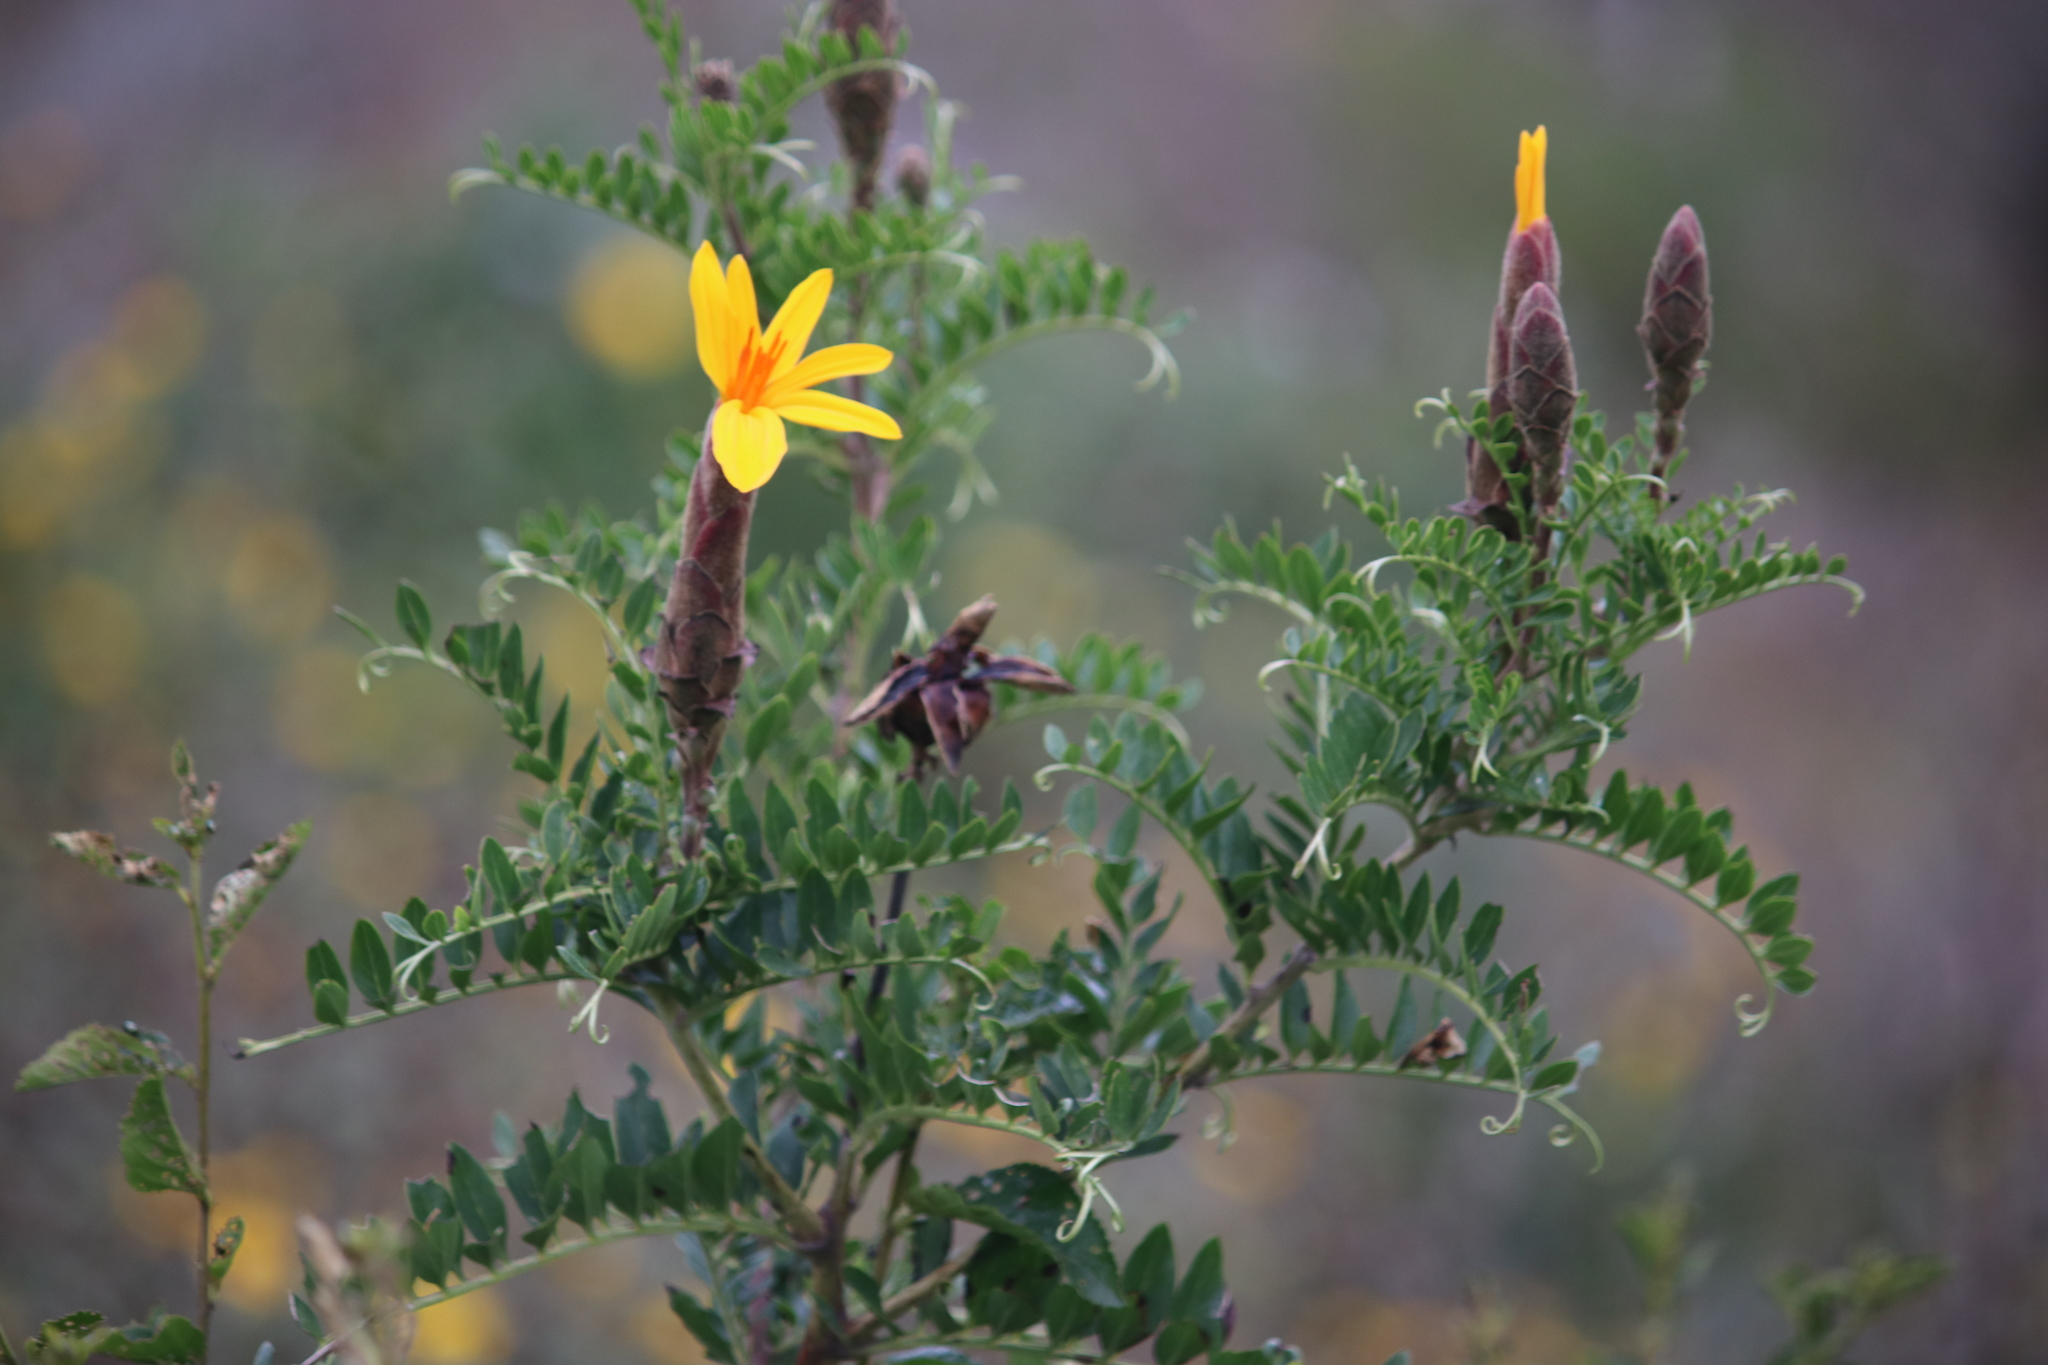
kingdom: Plantae
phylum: Tracheophyta
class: Magnoliopsida
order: Asterales
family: Asteraceae
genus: Mutisia
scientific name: Mutisia acuminata
